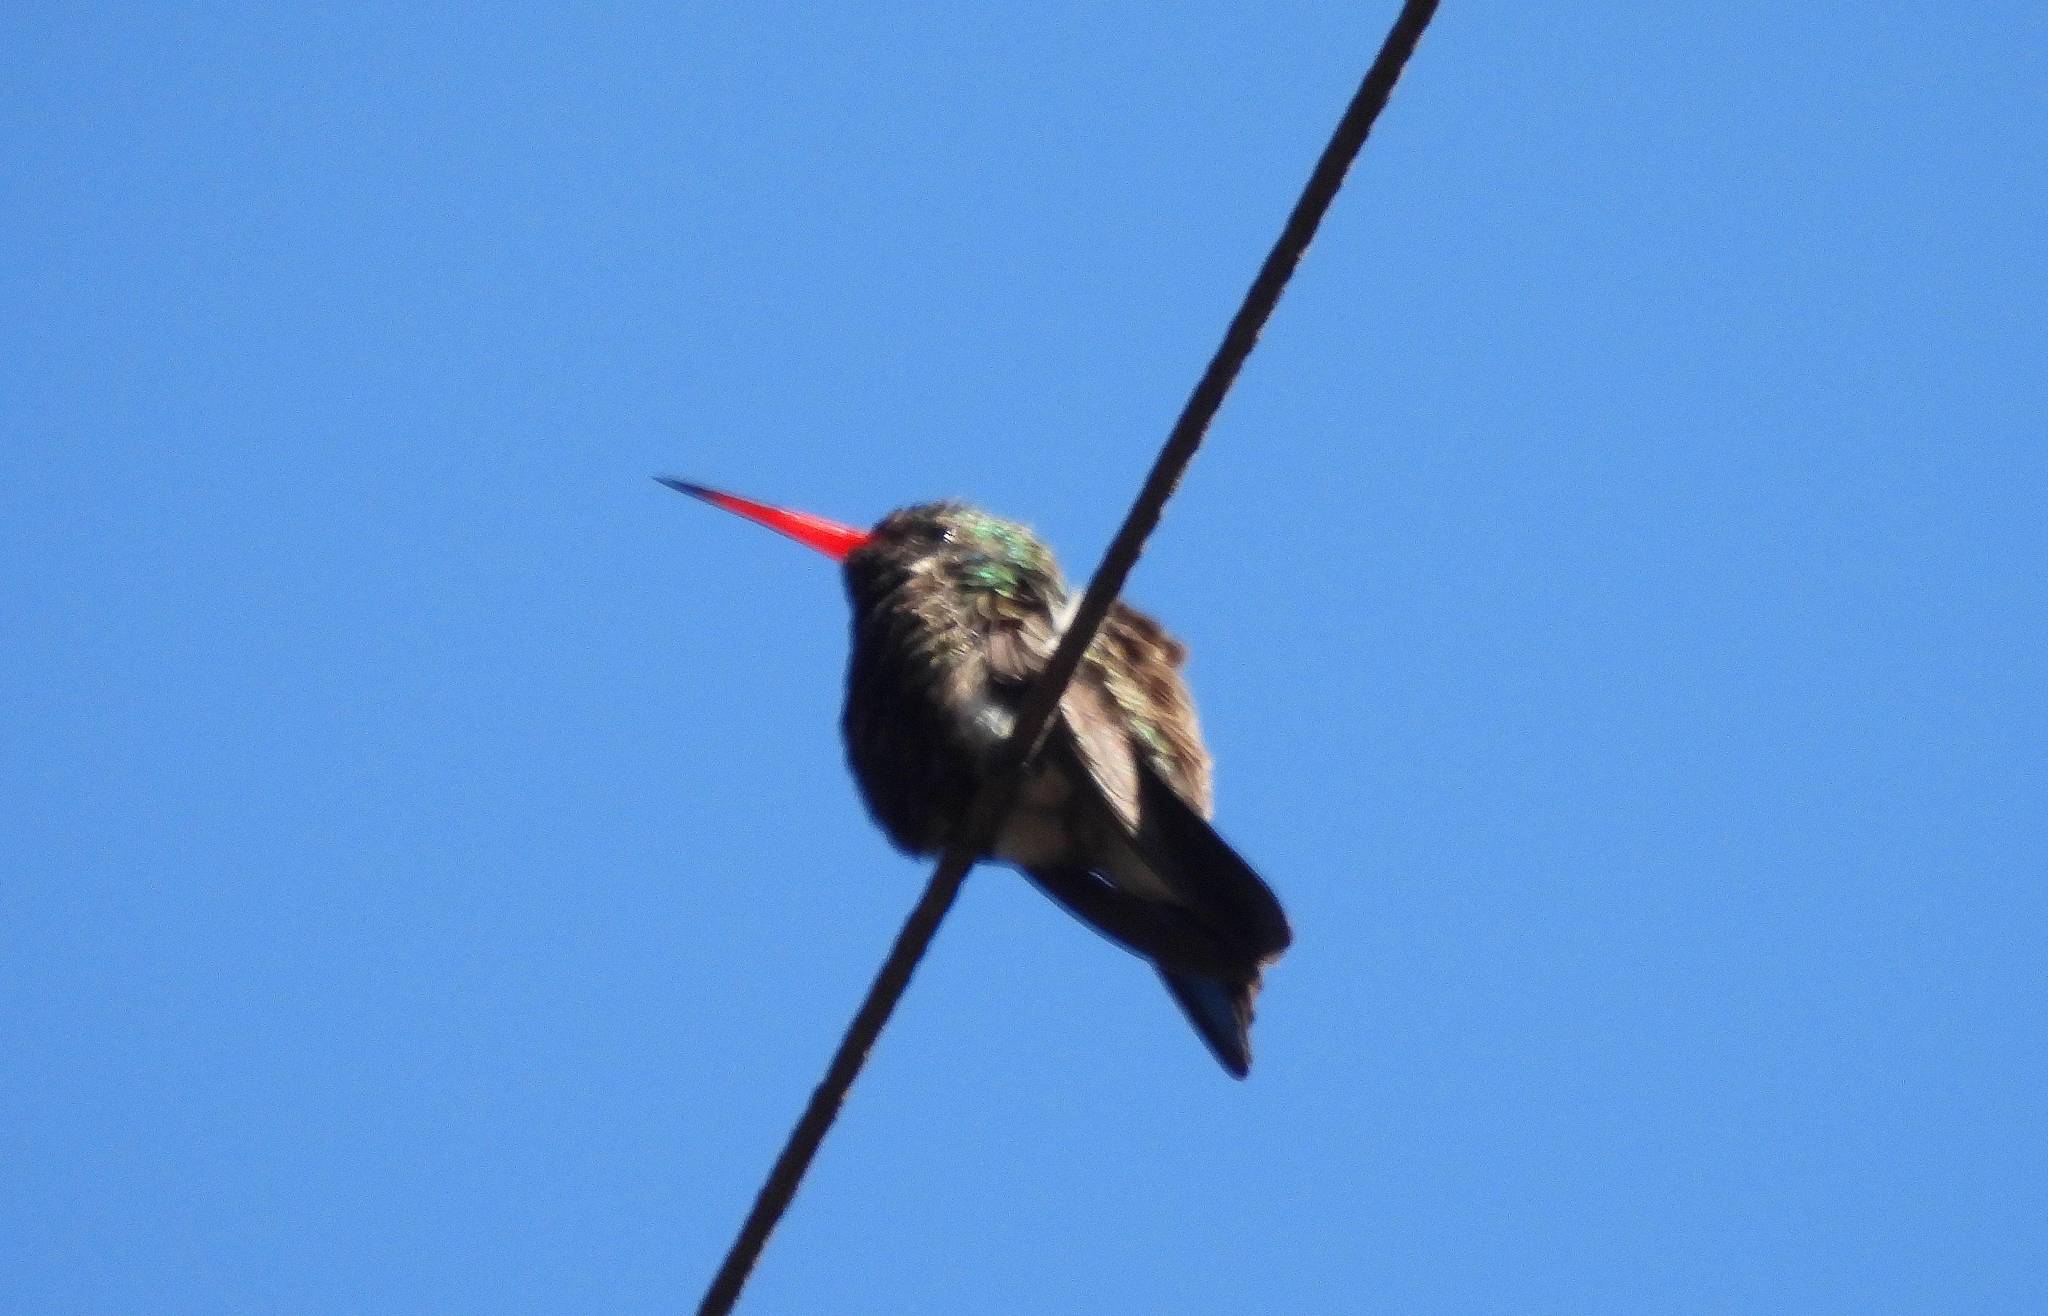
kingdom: Animalia
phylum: Chordata
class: Aves
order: Apodiformes
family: Trochilidae
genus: Cynanthus
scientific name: Cynanthus latirostris
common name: Broad-billed hummingbird
